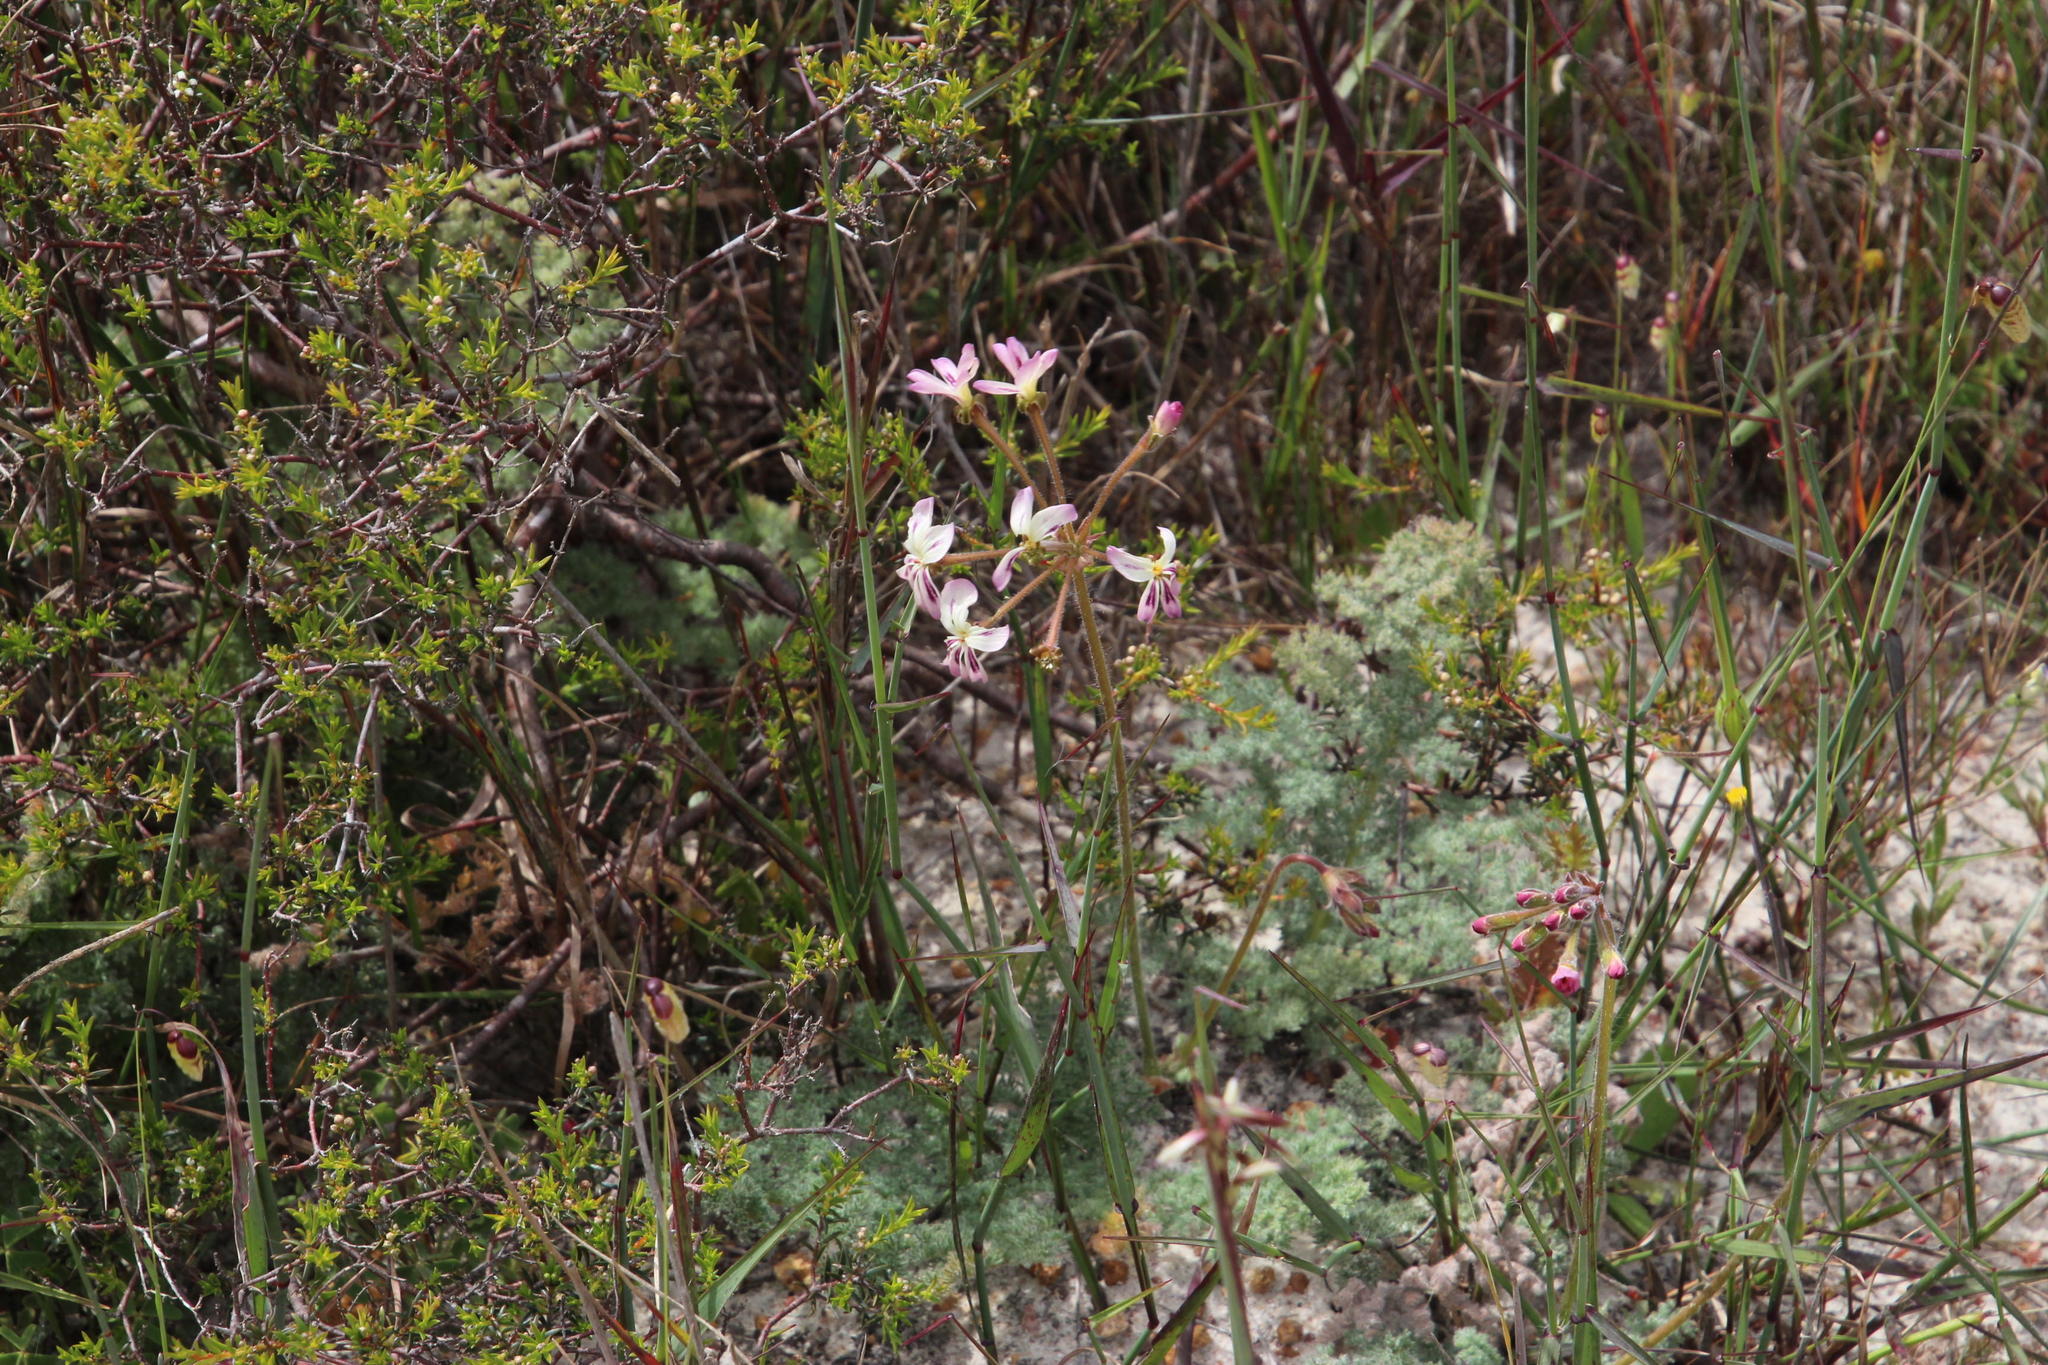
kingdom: Plantae
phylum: Tracheophyta
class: Magnoliopsida
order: Geraniales
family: Geraniaceae
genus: Pelargonium
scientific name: Pelargonium triste
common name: Night-scent pelargonium
